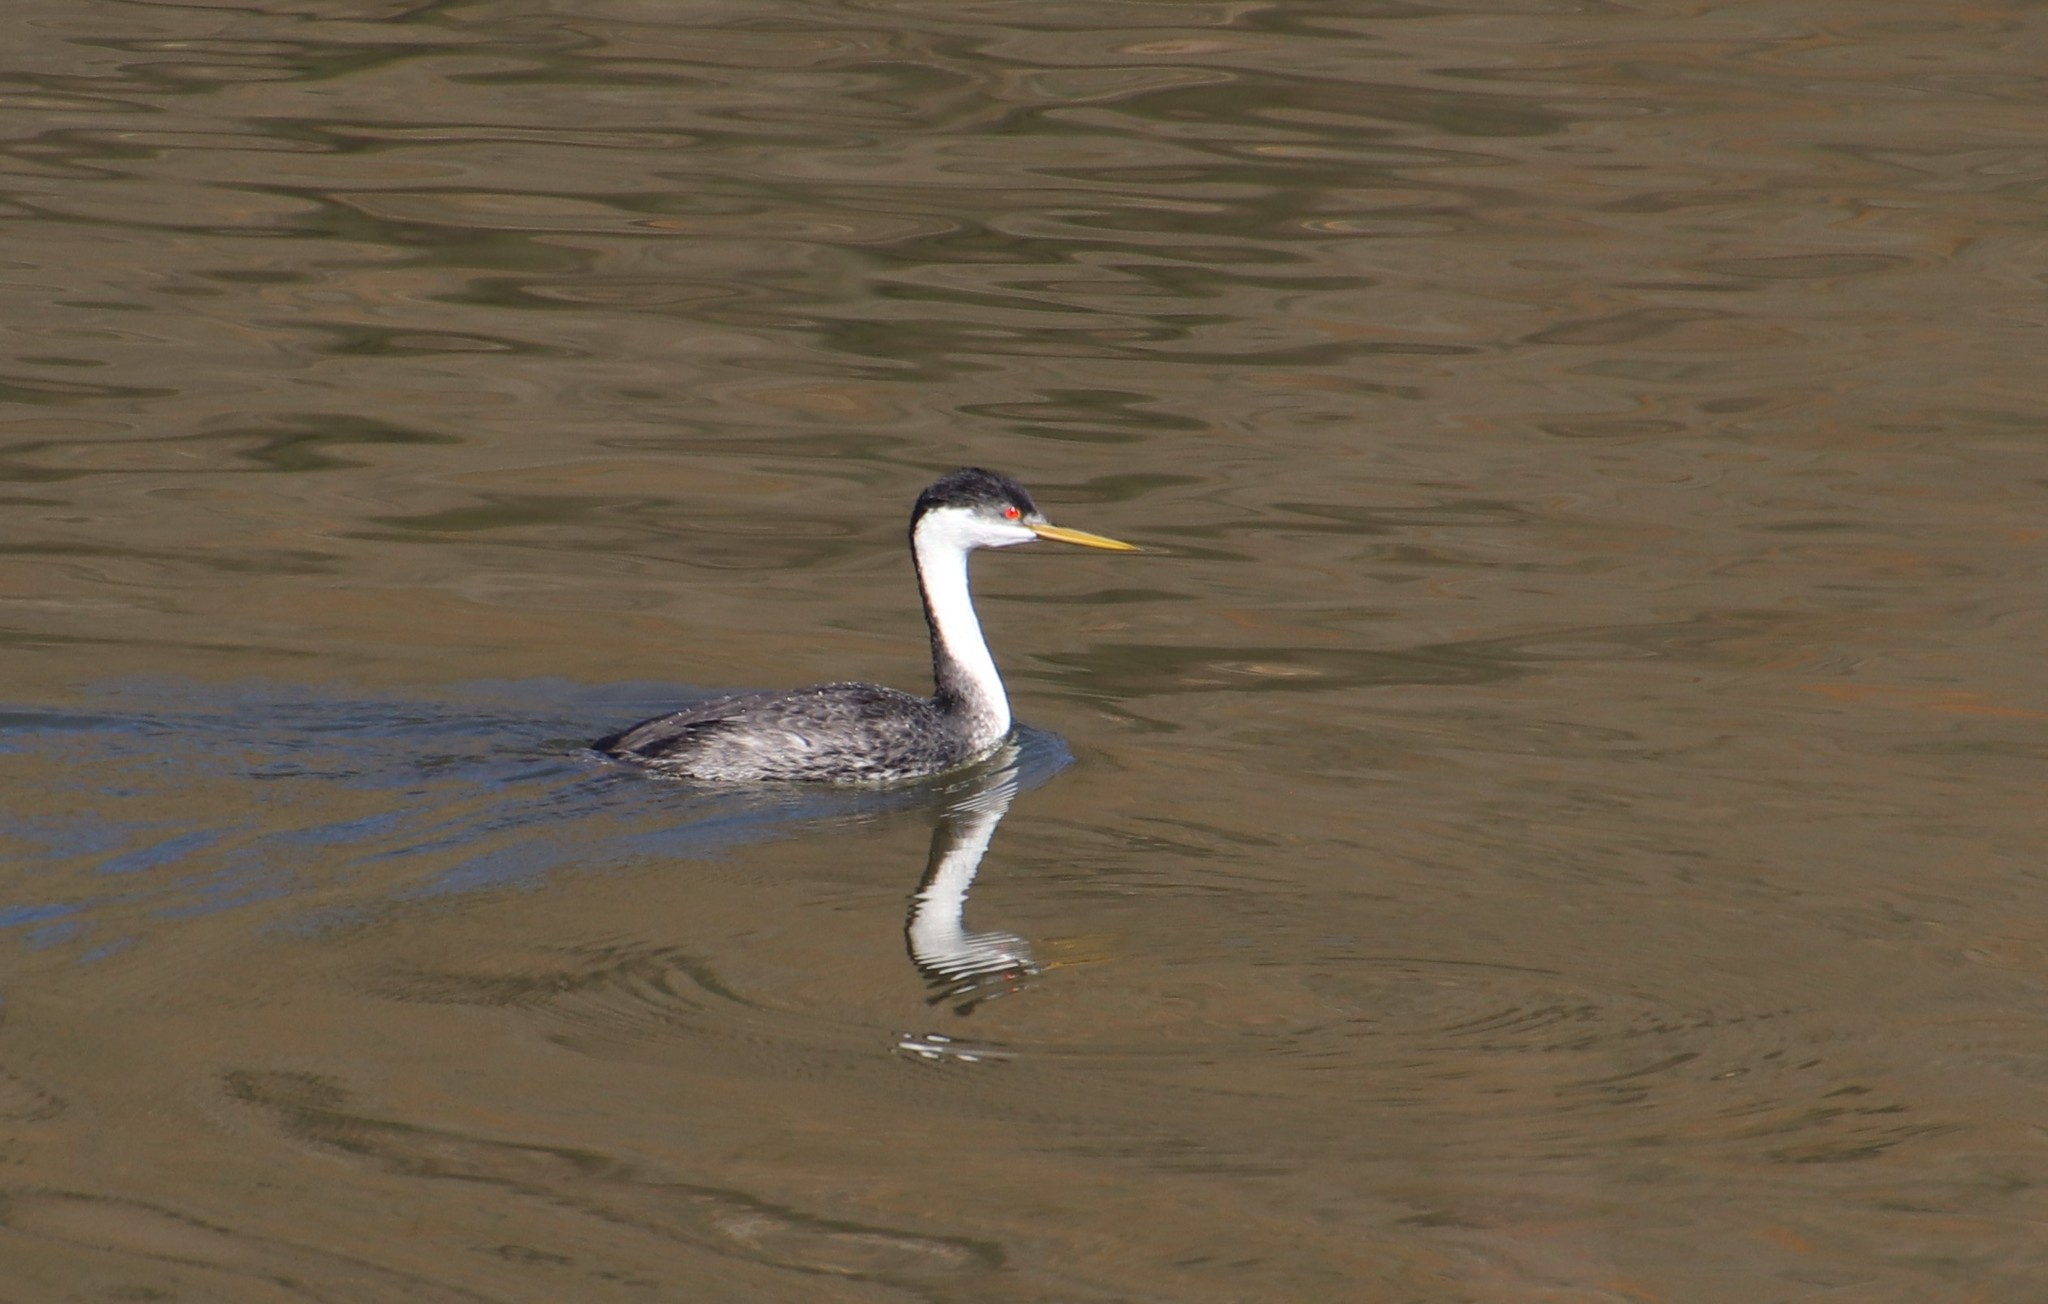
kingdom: Animalia
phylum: Chordata
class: Aves
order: Podicipediformes
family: Podicipedidae
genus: Aechmophorus
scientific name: Aechmophorus occidentalis
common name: Western grebe
